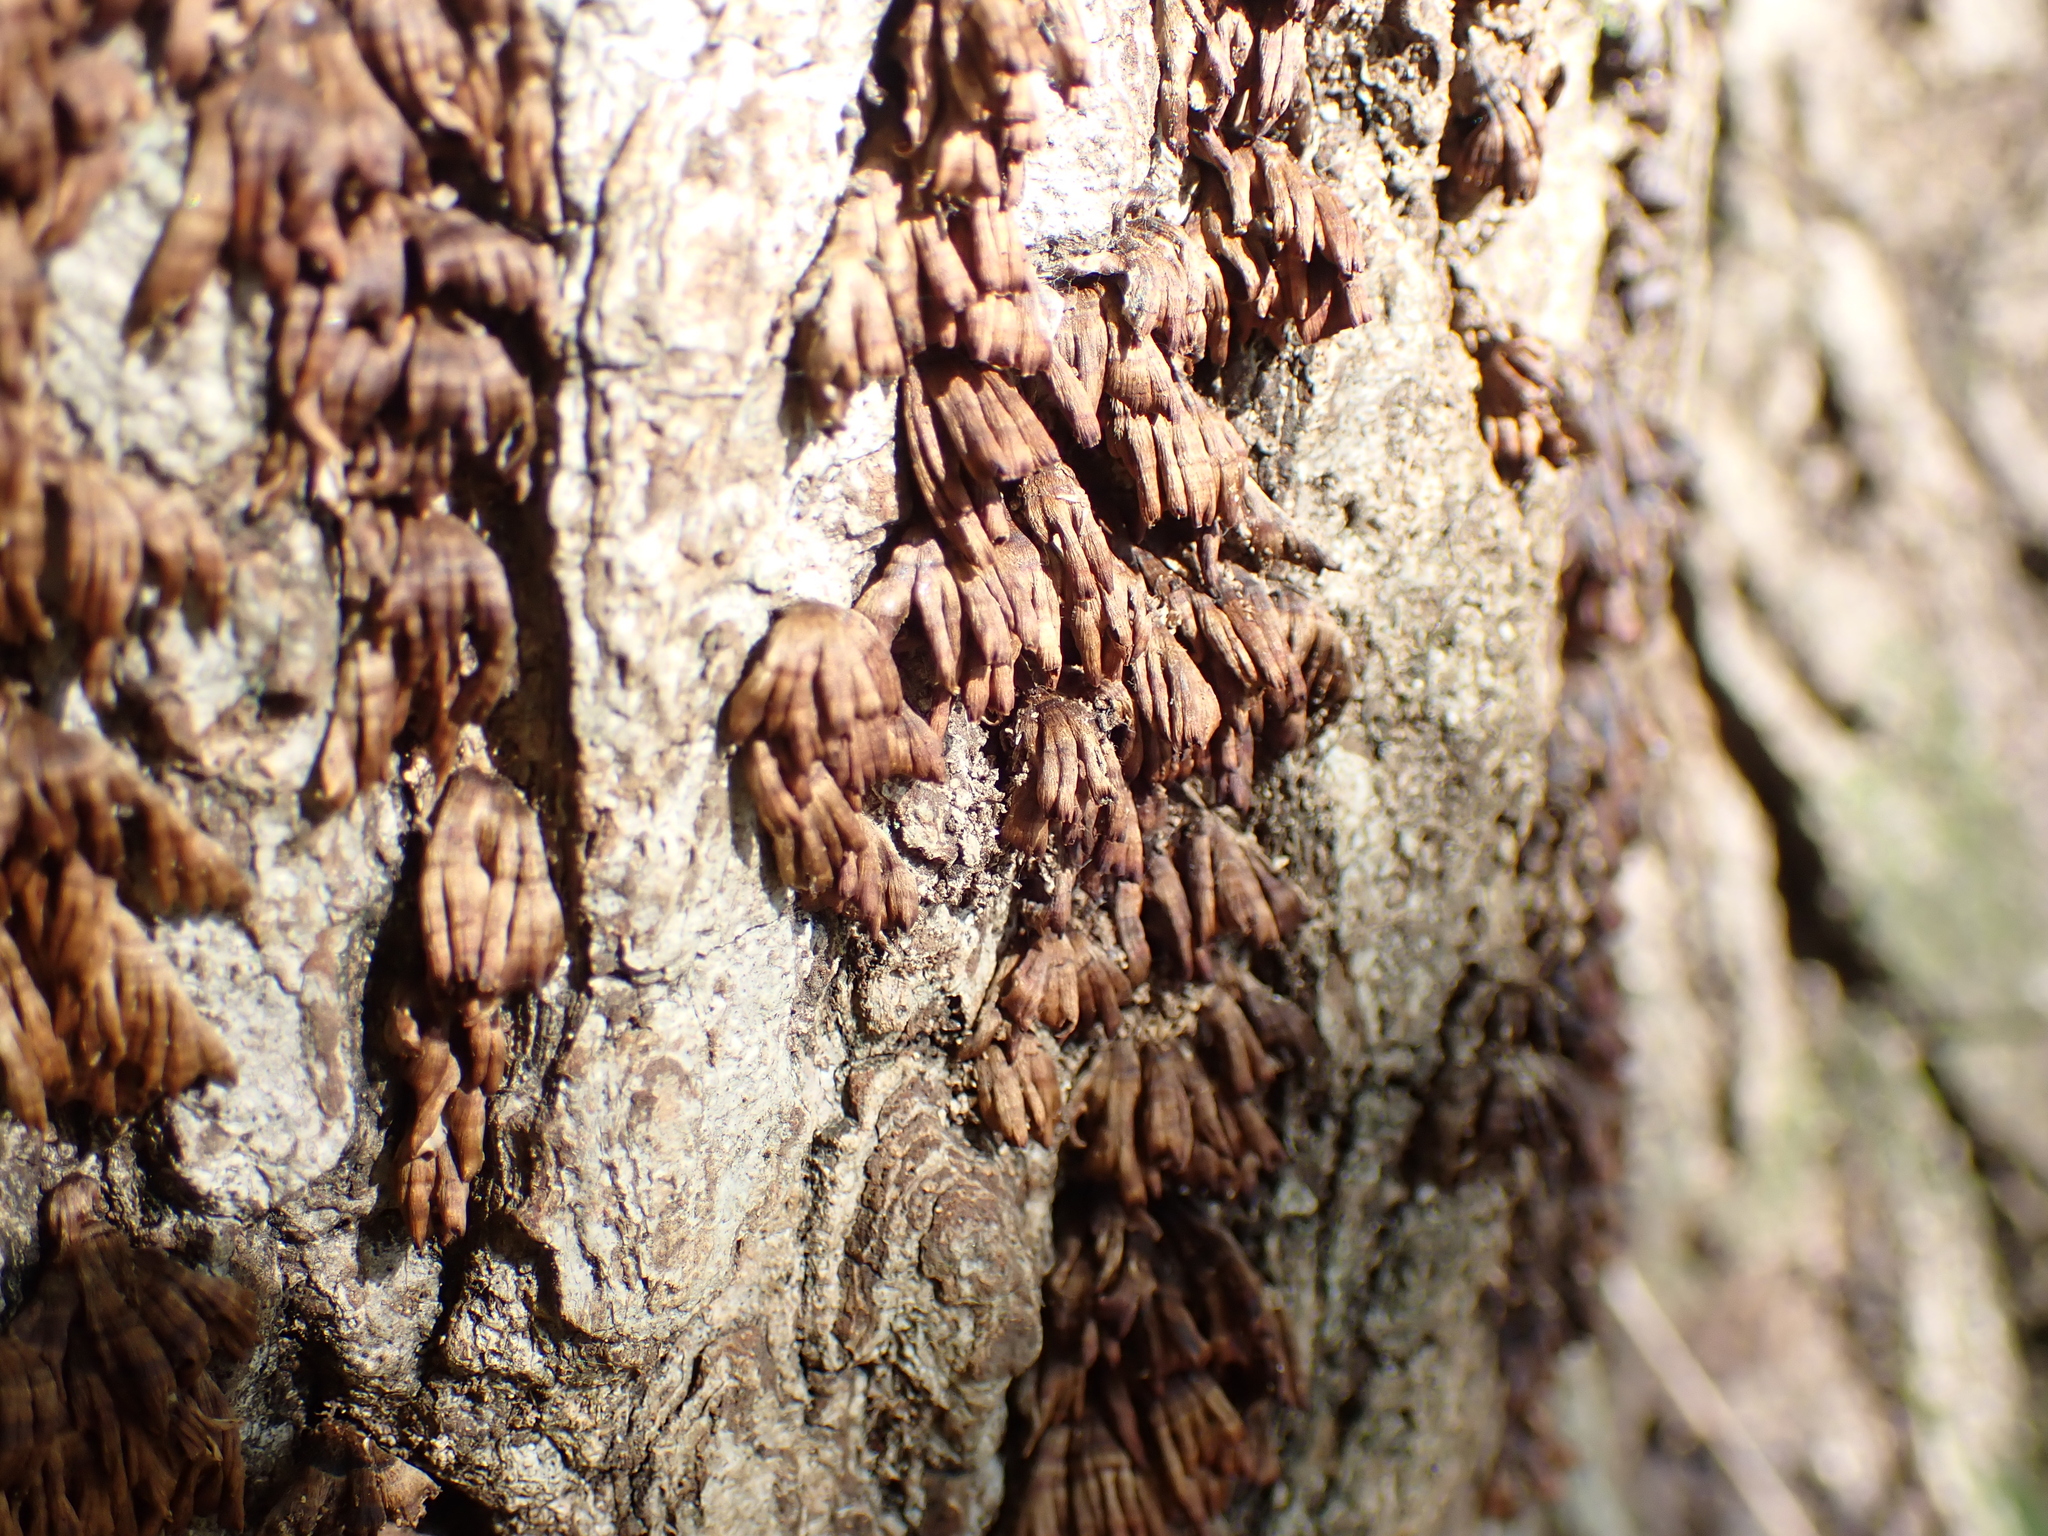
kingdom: Fungi
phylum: Basidiomycota
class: Agaricomycetes
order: Russulales
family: Stereaceae
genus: Xylobolus
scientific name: Xylobolus spectabilis
